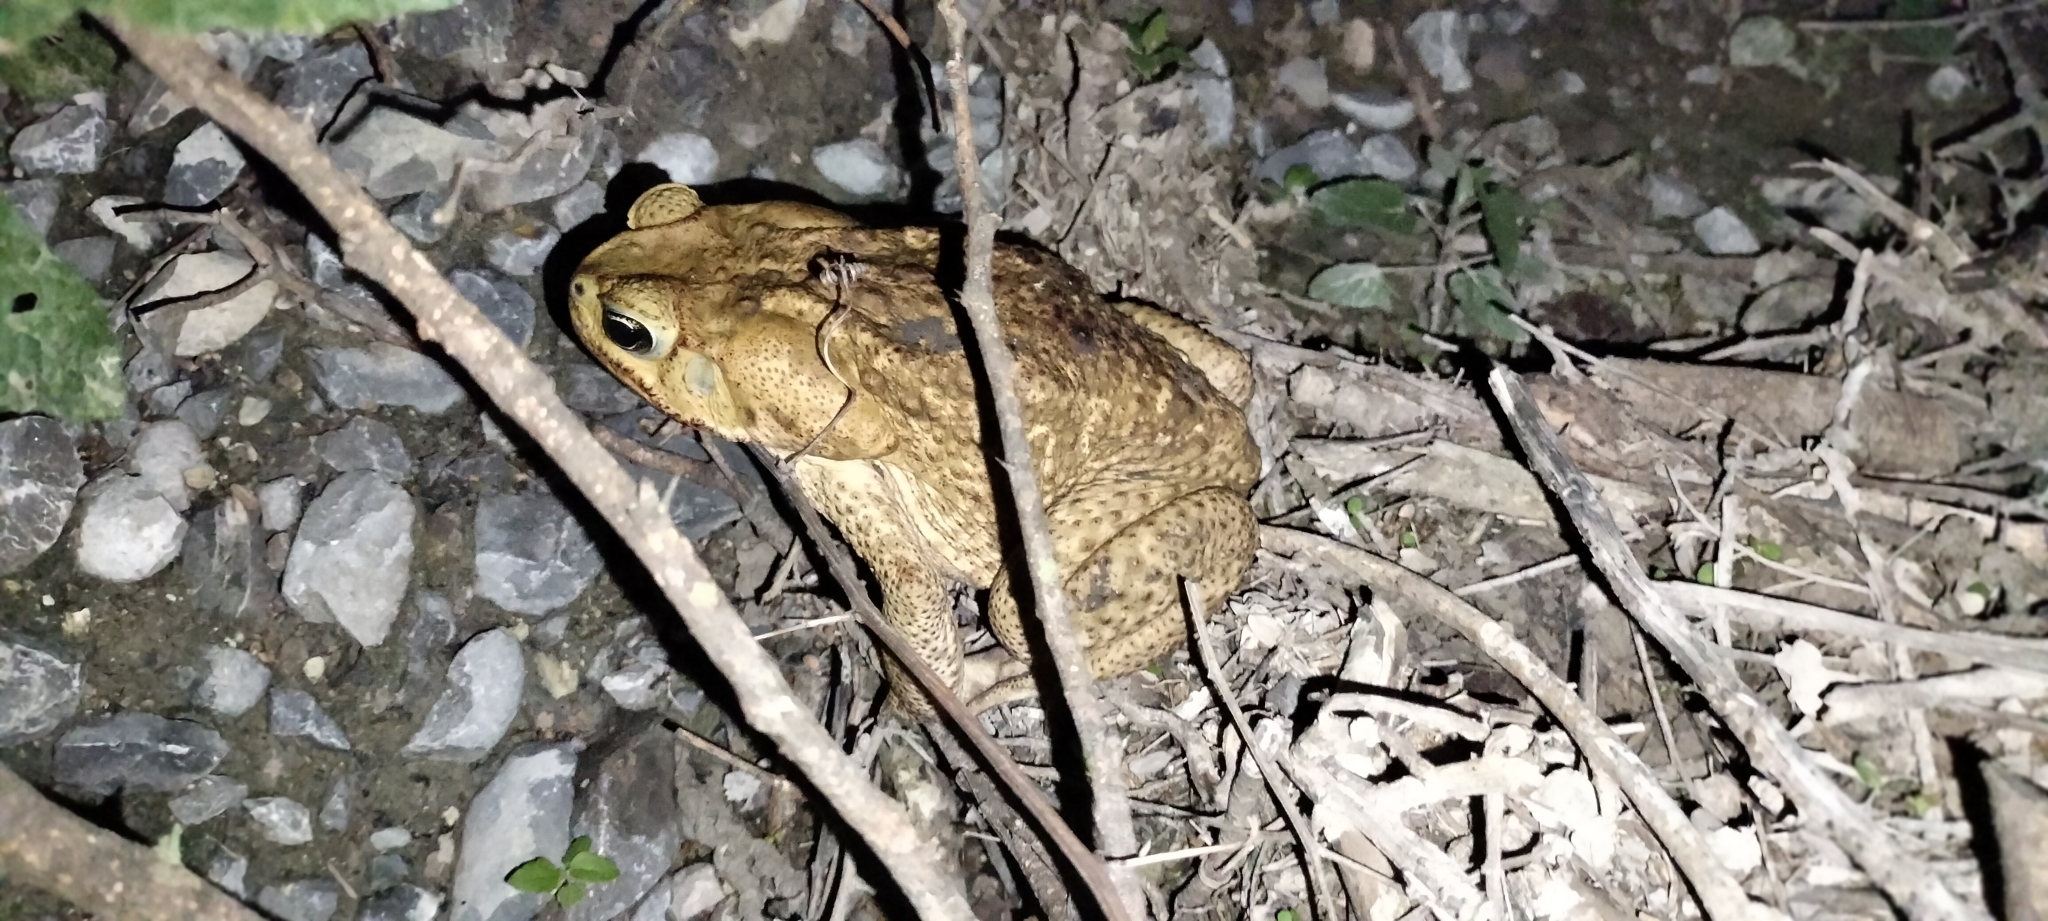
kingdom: Animalia
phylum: Chordata
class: Amphibia
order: Anura
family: Bufonidae
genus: Rhinella
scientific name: Rhinella horribilis
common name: Mesoamerican cane toad
